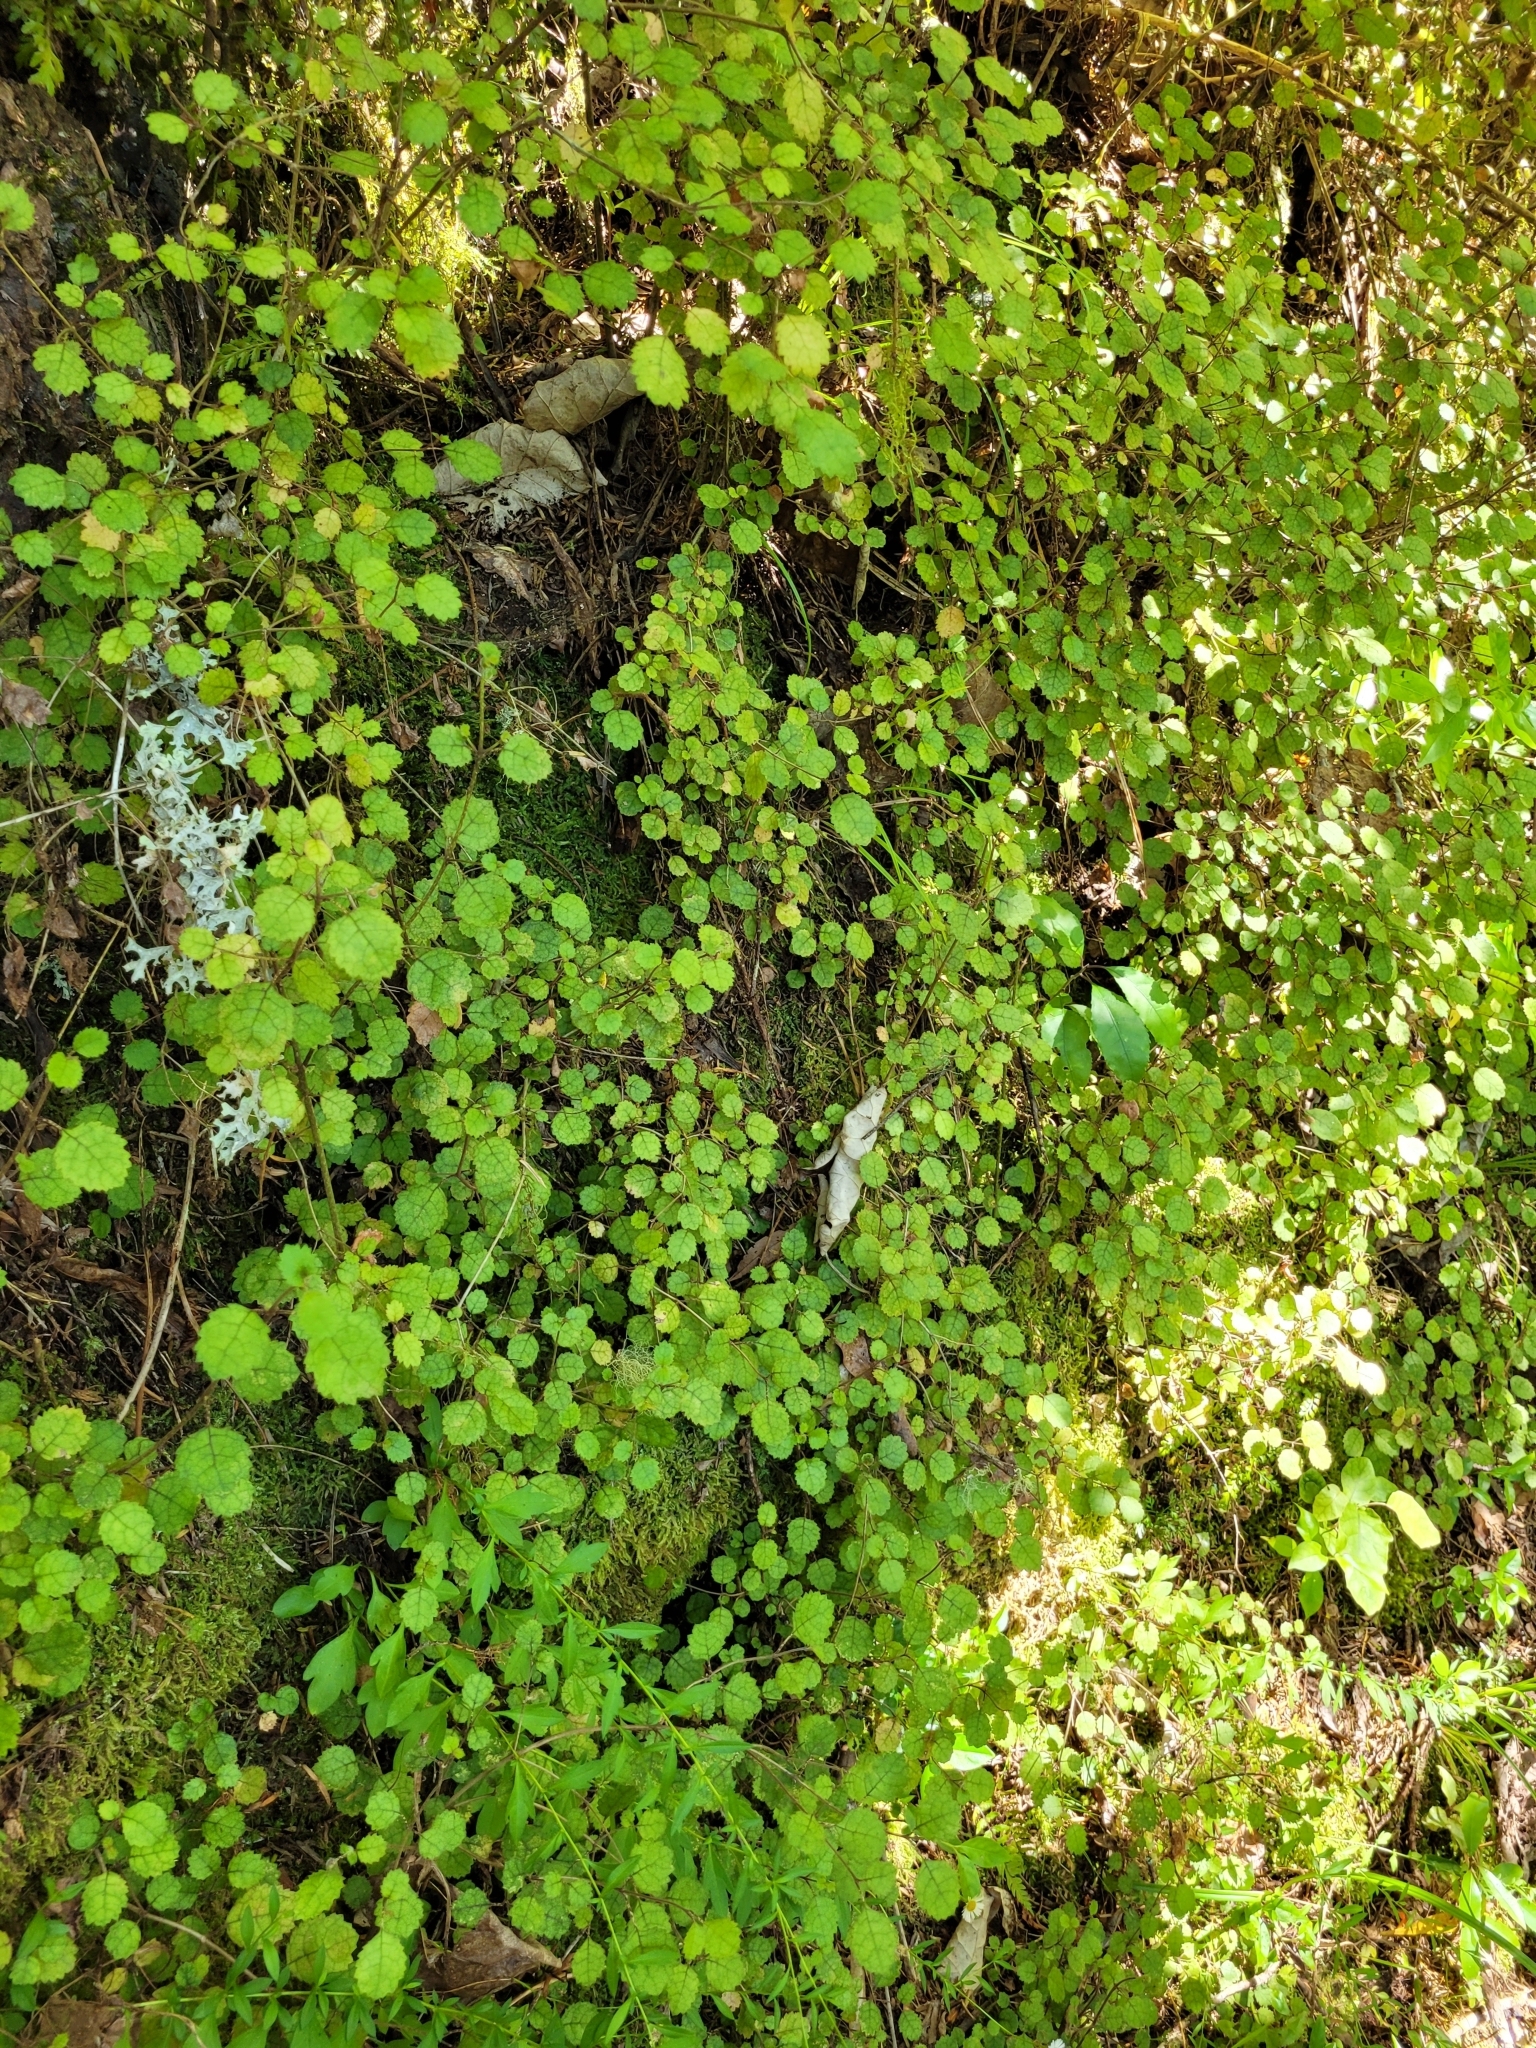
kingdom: Plantae
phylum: Tracheophyta
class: Magnoliopsida
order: Lamiales
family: Gesneriaceae
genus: Rhabdothamnus
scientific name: Rhabdothamnus solandri
